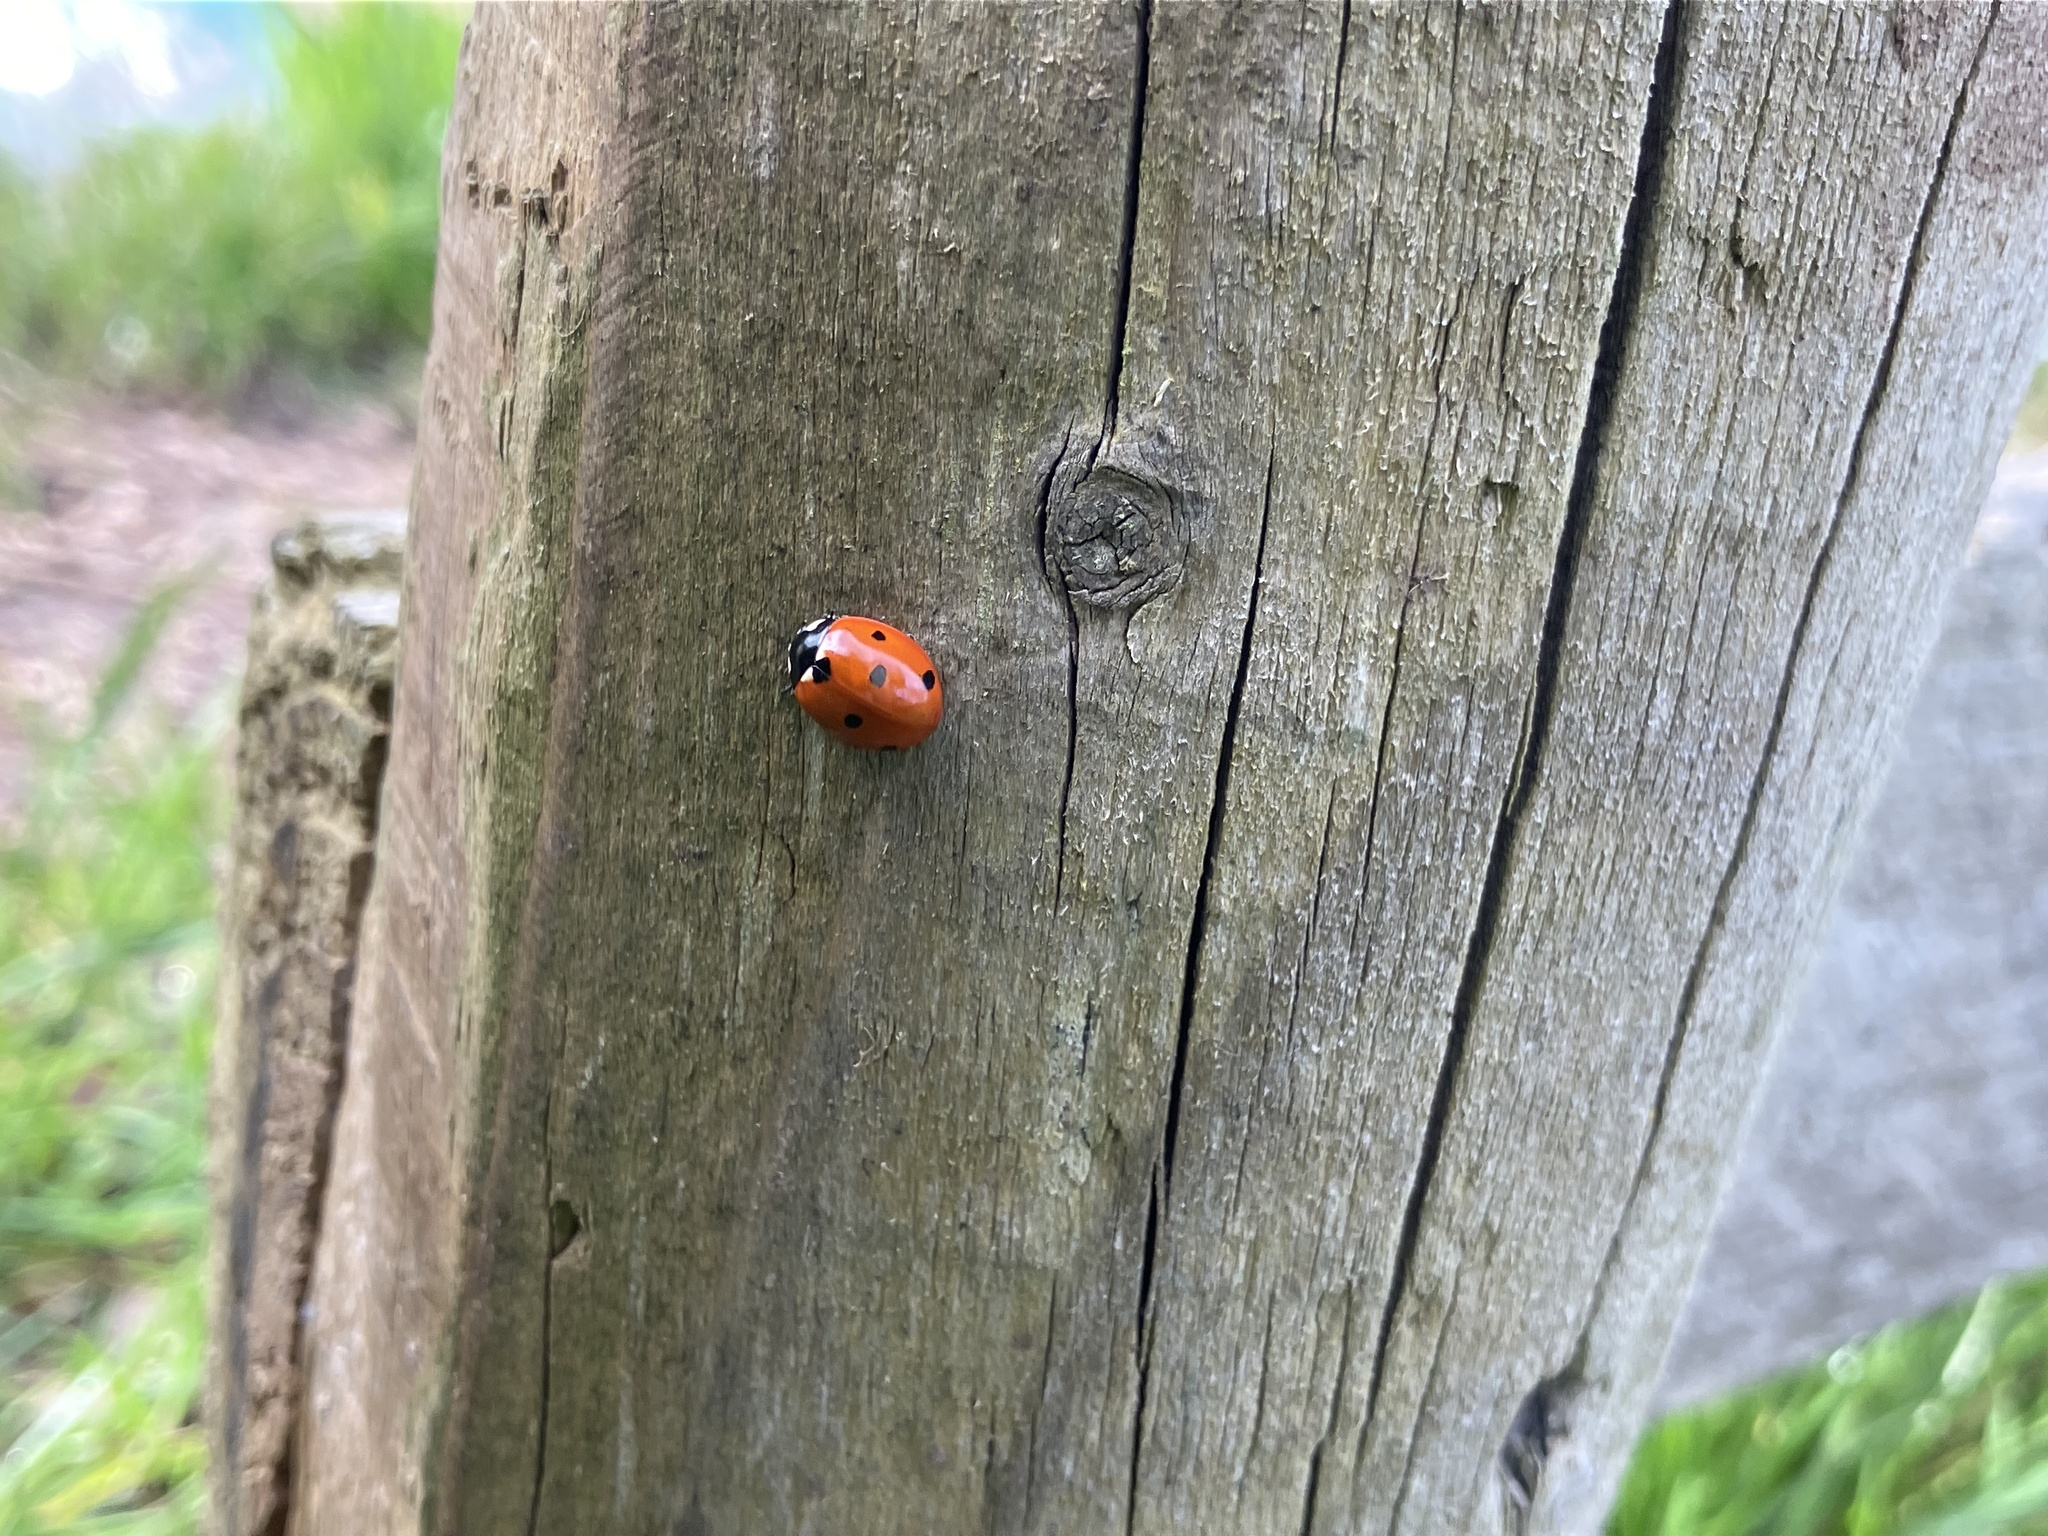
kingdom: Animalia
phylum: Arthropoda
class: Insecta
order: Coleoptera
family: Coccinellidae
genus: Coccinella
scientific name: Coccinella septempunctata
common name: Sevenspotted lady beetle
